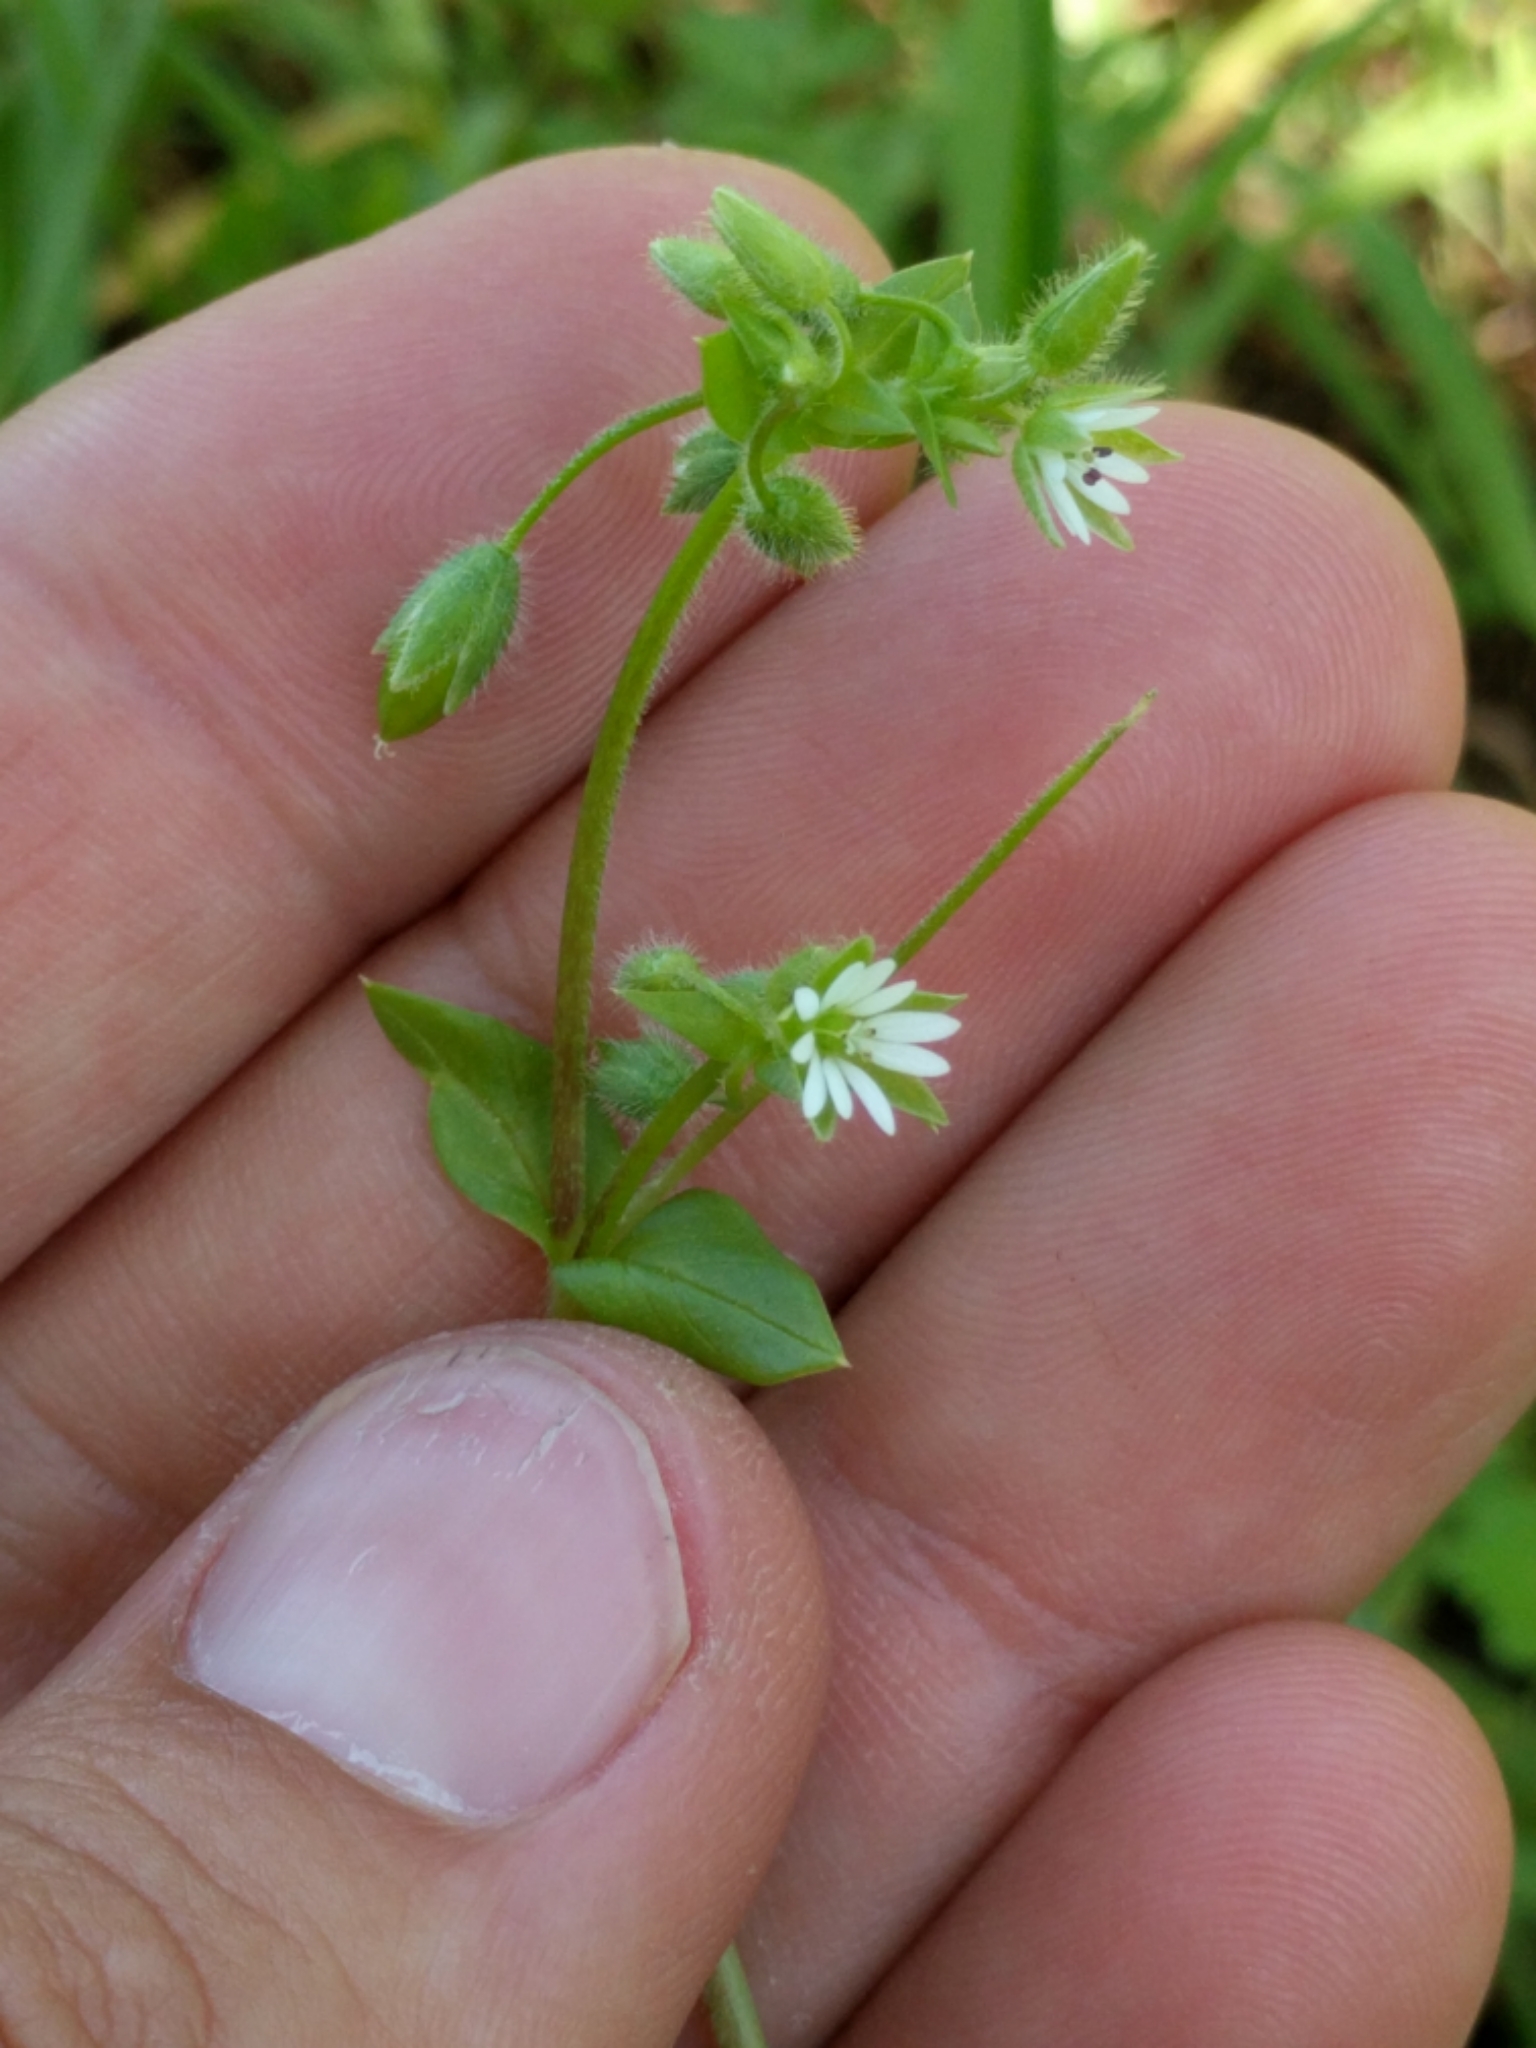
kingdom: Plantae
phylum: Tracheophyta
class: Magnoliopsida
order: Caryophyllales
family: Caryophyllaceae
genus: Stellaria
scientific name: Stellaria media
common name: Common chickweed
